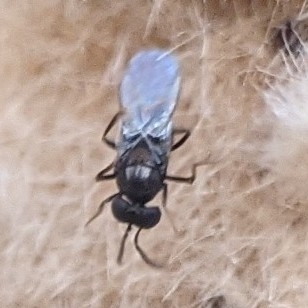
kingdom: Animalia
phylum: Arthropoda
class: Insecta
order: Hymenoptera
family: Encyrtidae
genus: Ooencyrtus
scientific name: Ooencyrtus kuvanae
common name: Wasp
